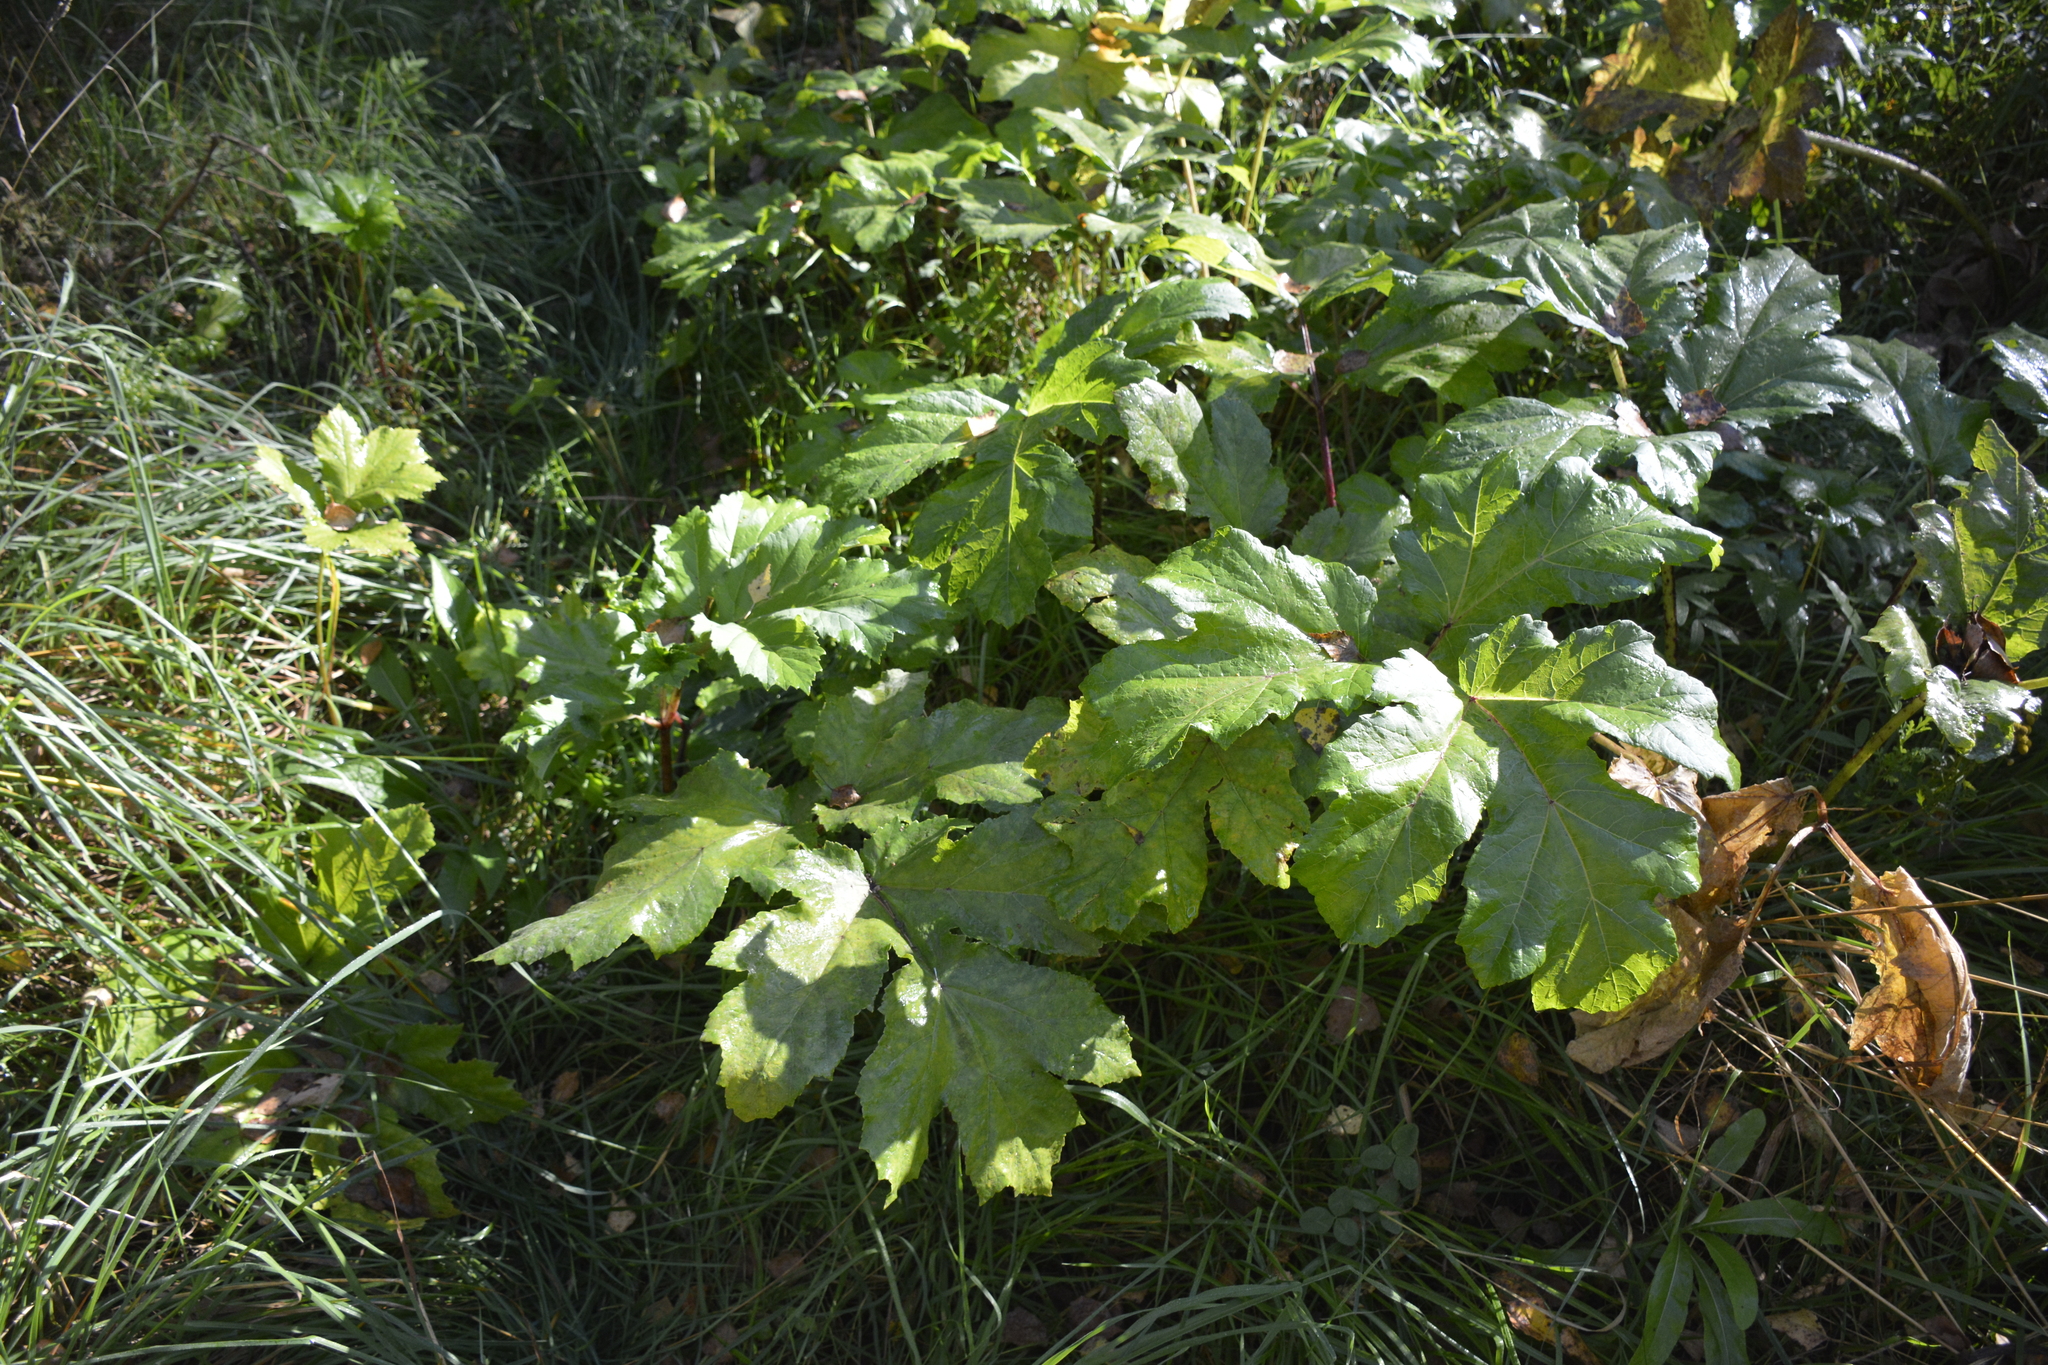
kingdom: Plantae
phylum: Tracheophyta
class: Magnoliopsida
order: Apiales
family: Apiaceae
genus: Heracleum
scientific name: Heracleum sosnowskyi
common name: Sosnowsky's hogweed
